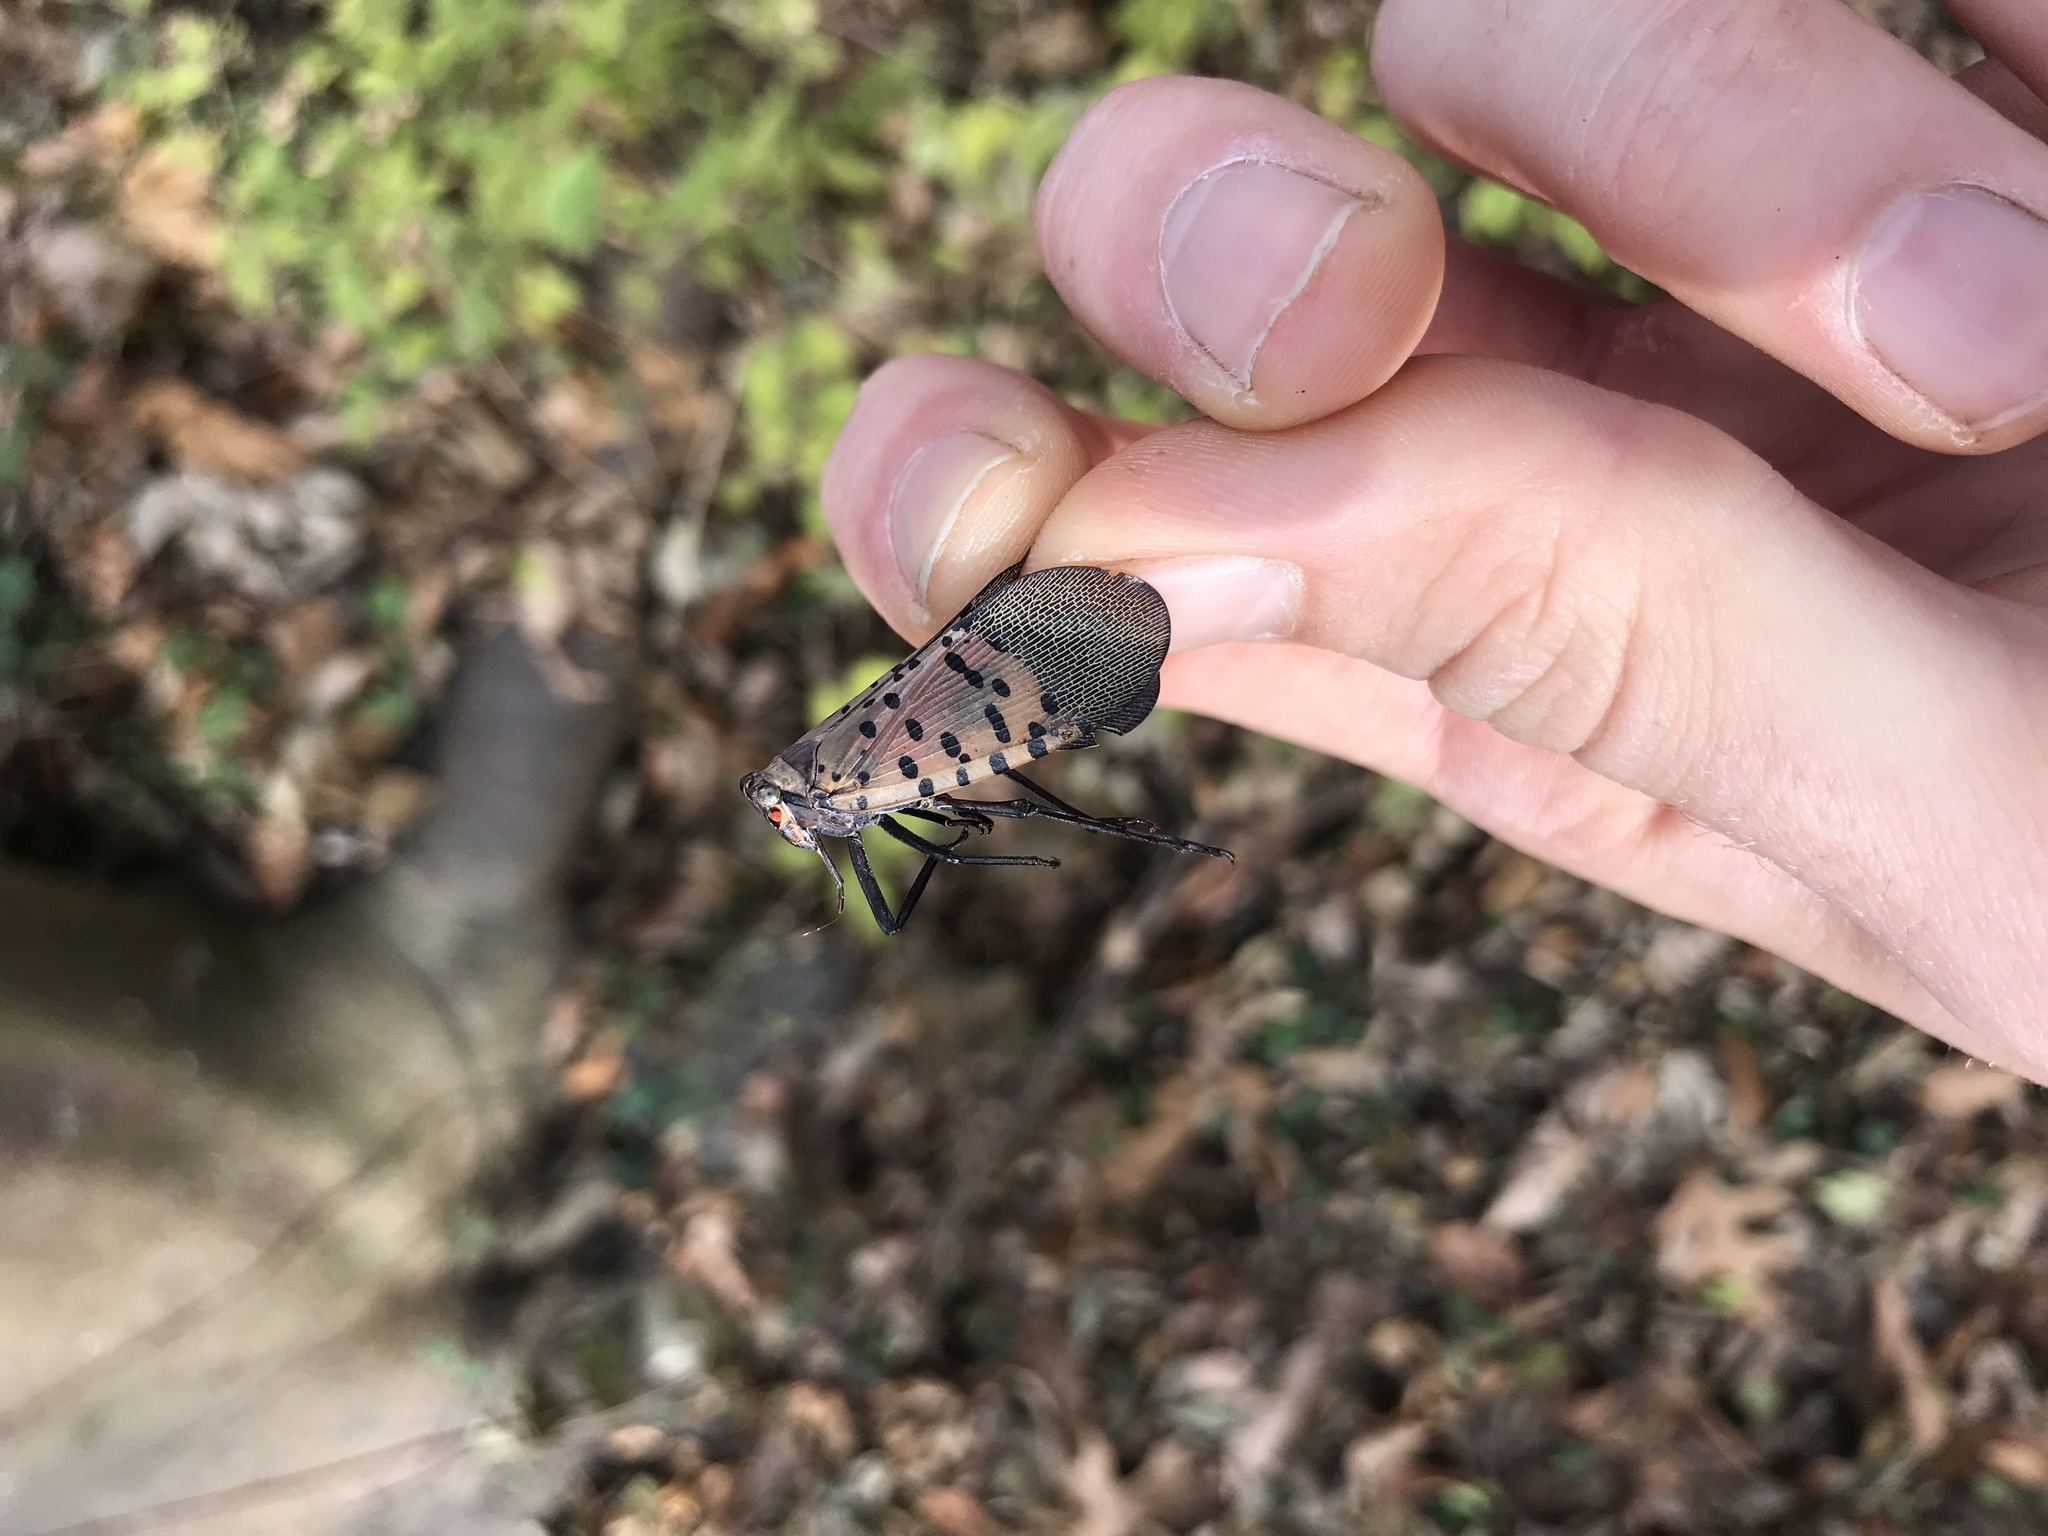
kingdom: Animalia
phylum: Arthropoda
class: Insecta
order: Hemiptera
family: Fulgoridae
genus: Lycorma
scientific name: Lycorma delicatula
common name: Spotted lanternfly
